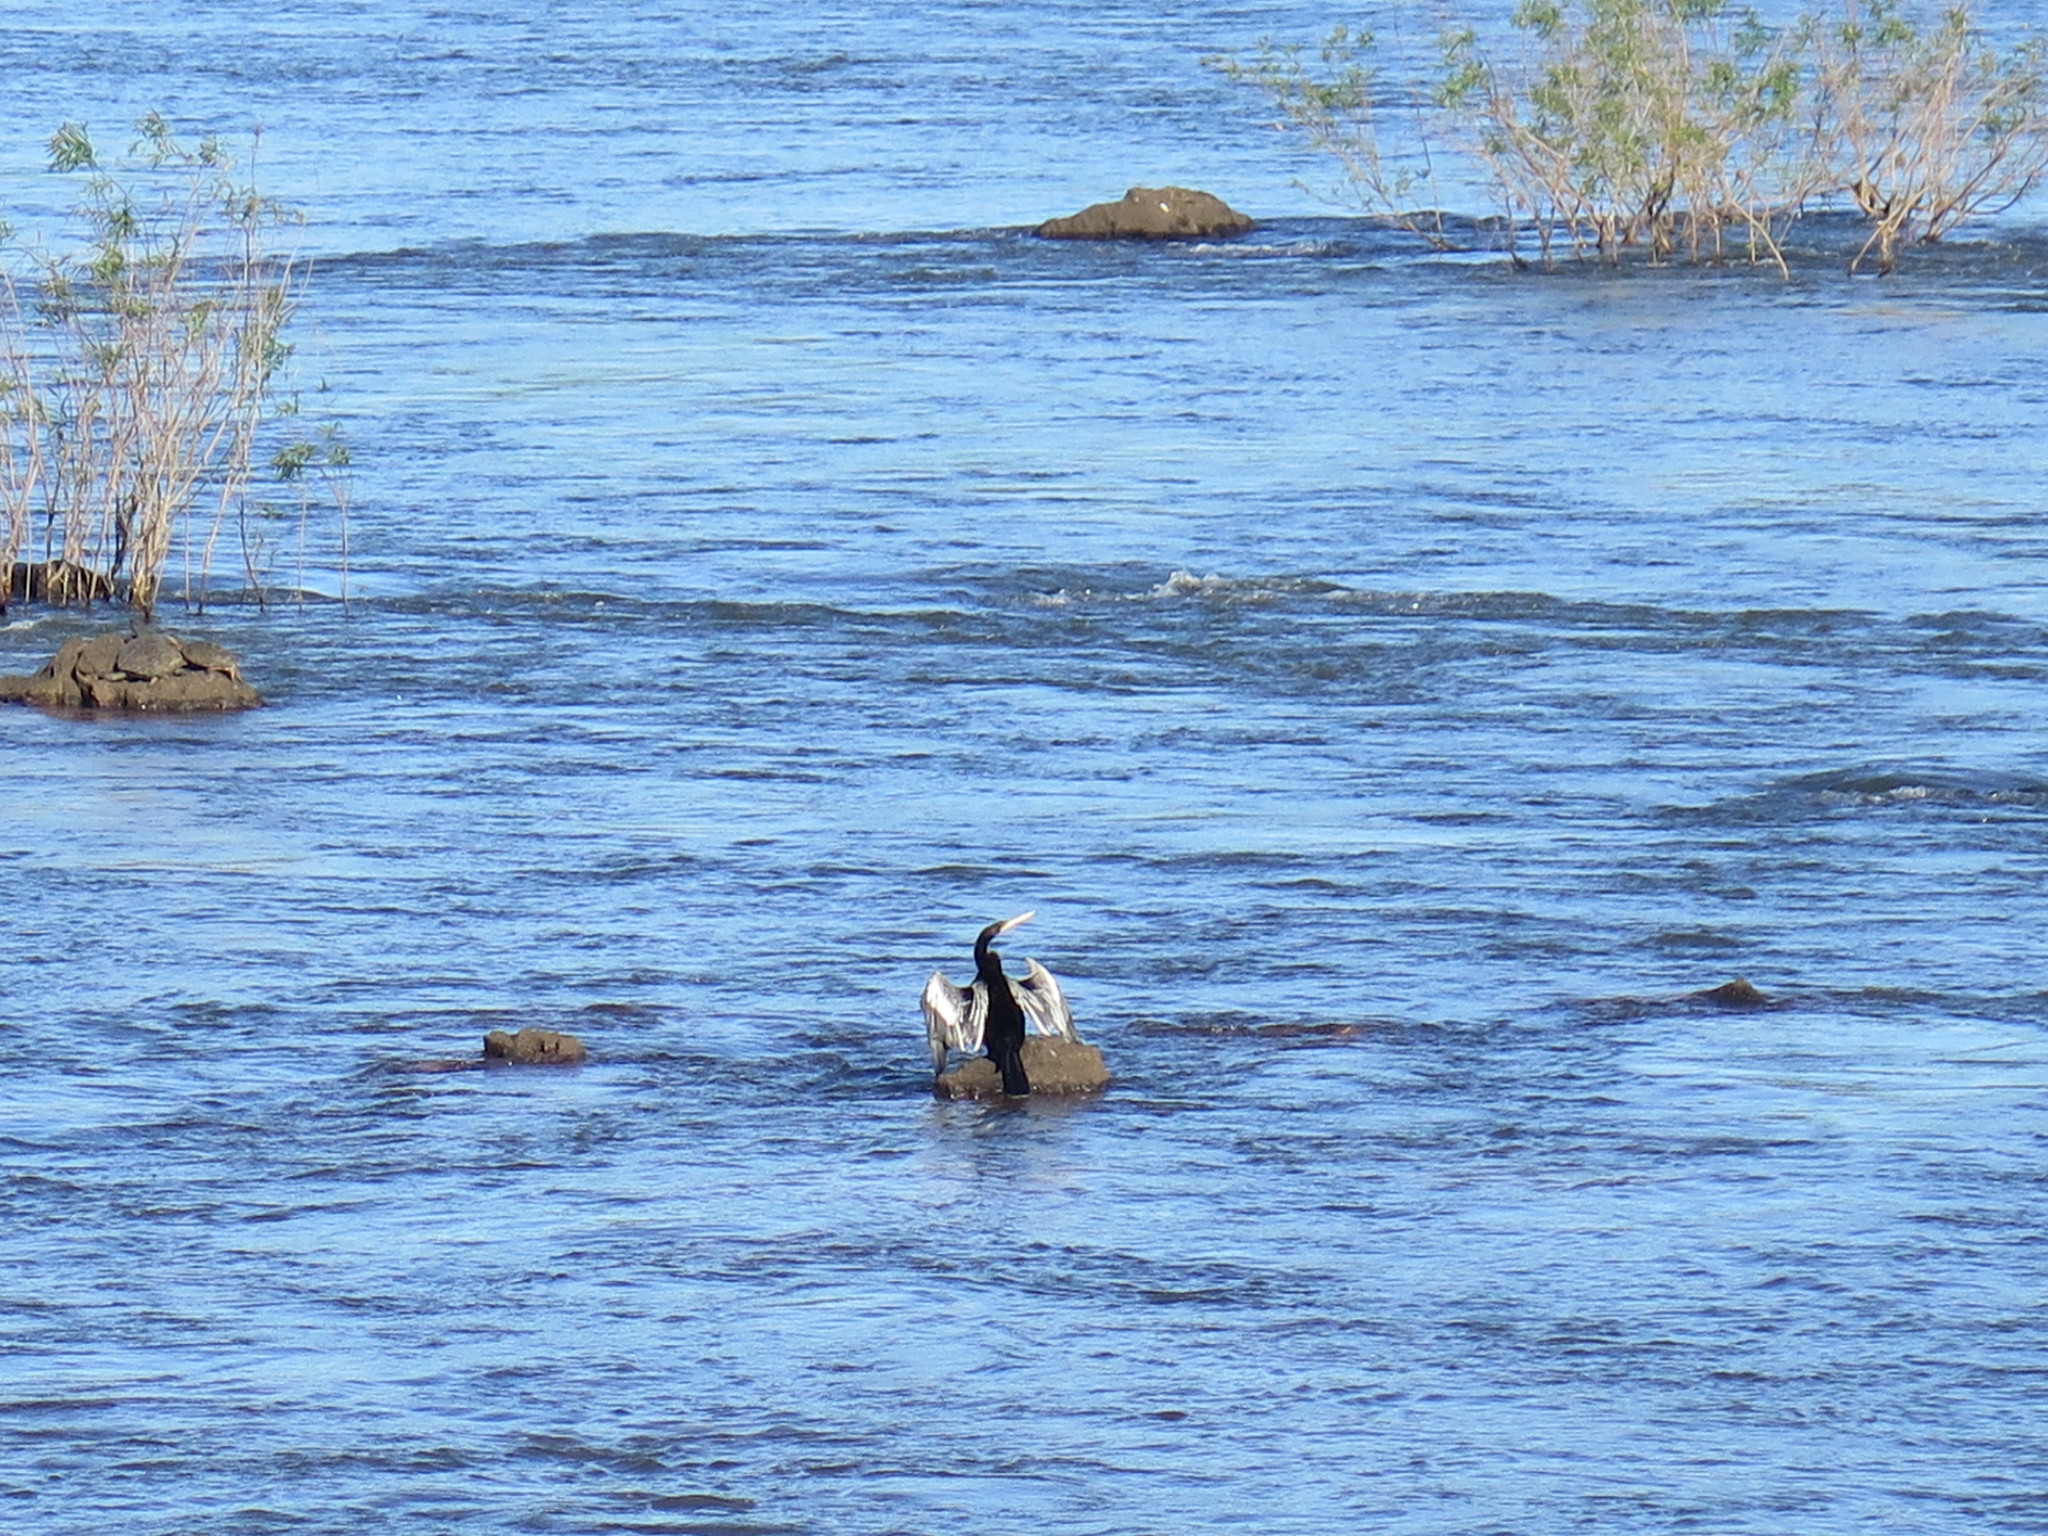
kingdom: Animalia
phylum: Chordata
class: Aves
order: Suliformes
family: Anhingidae
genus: Anhinga
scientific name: Anhinga anhinga
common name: Anhinga
